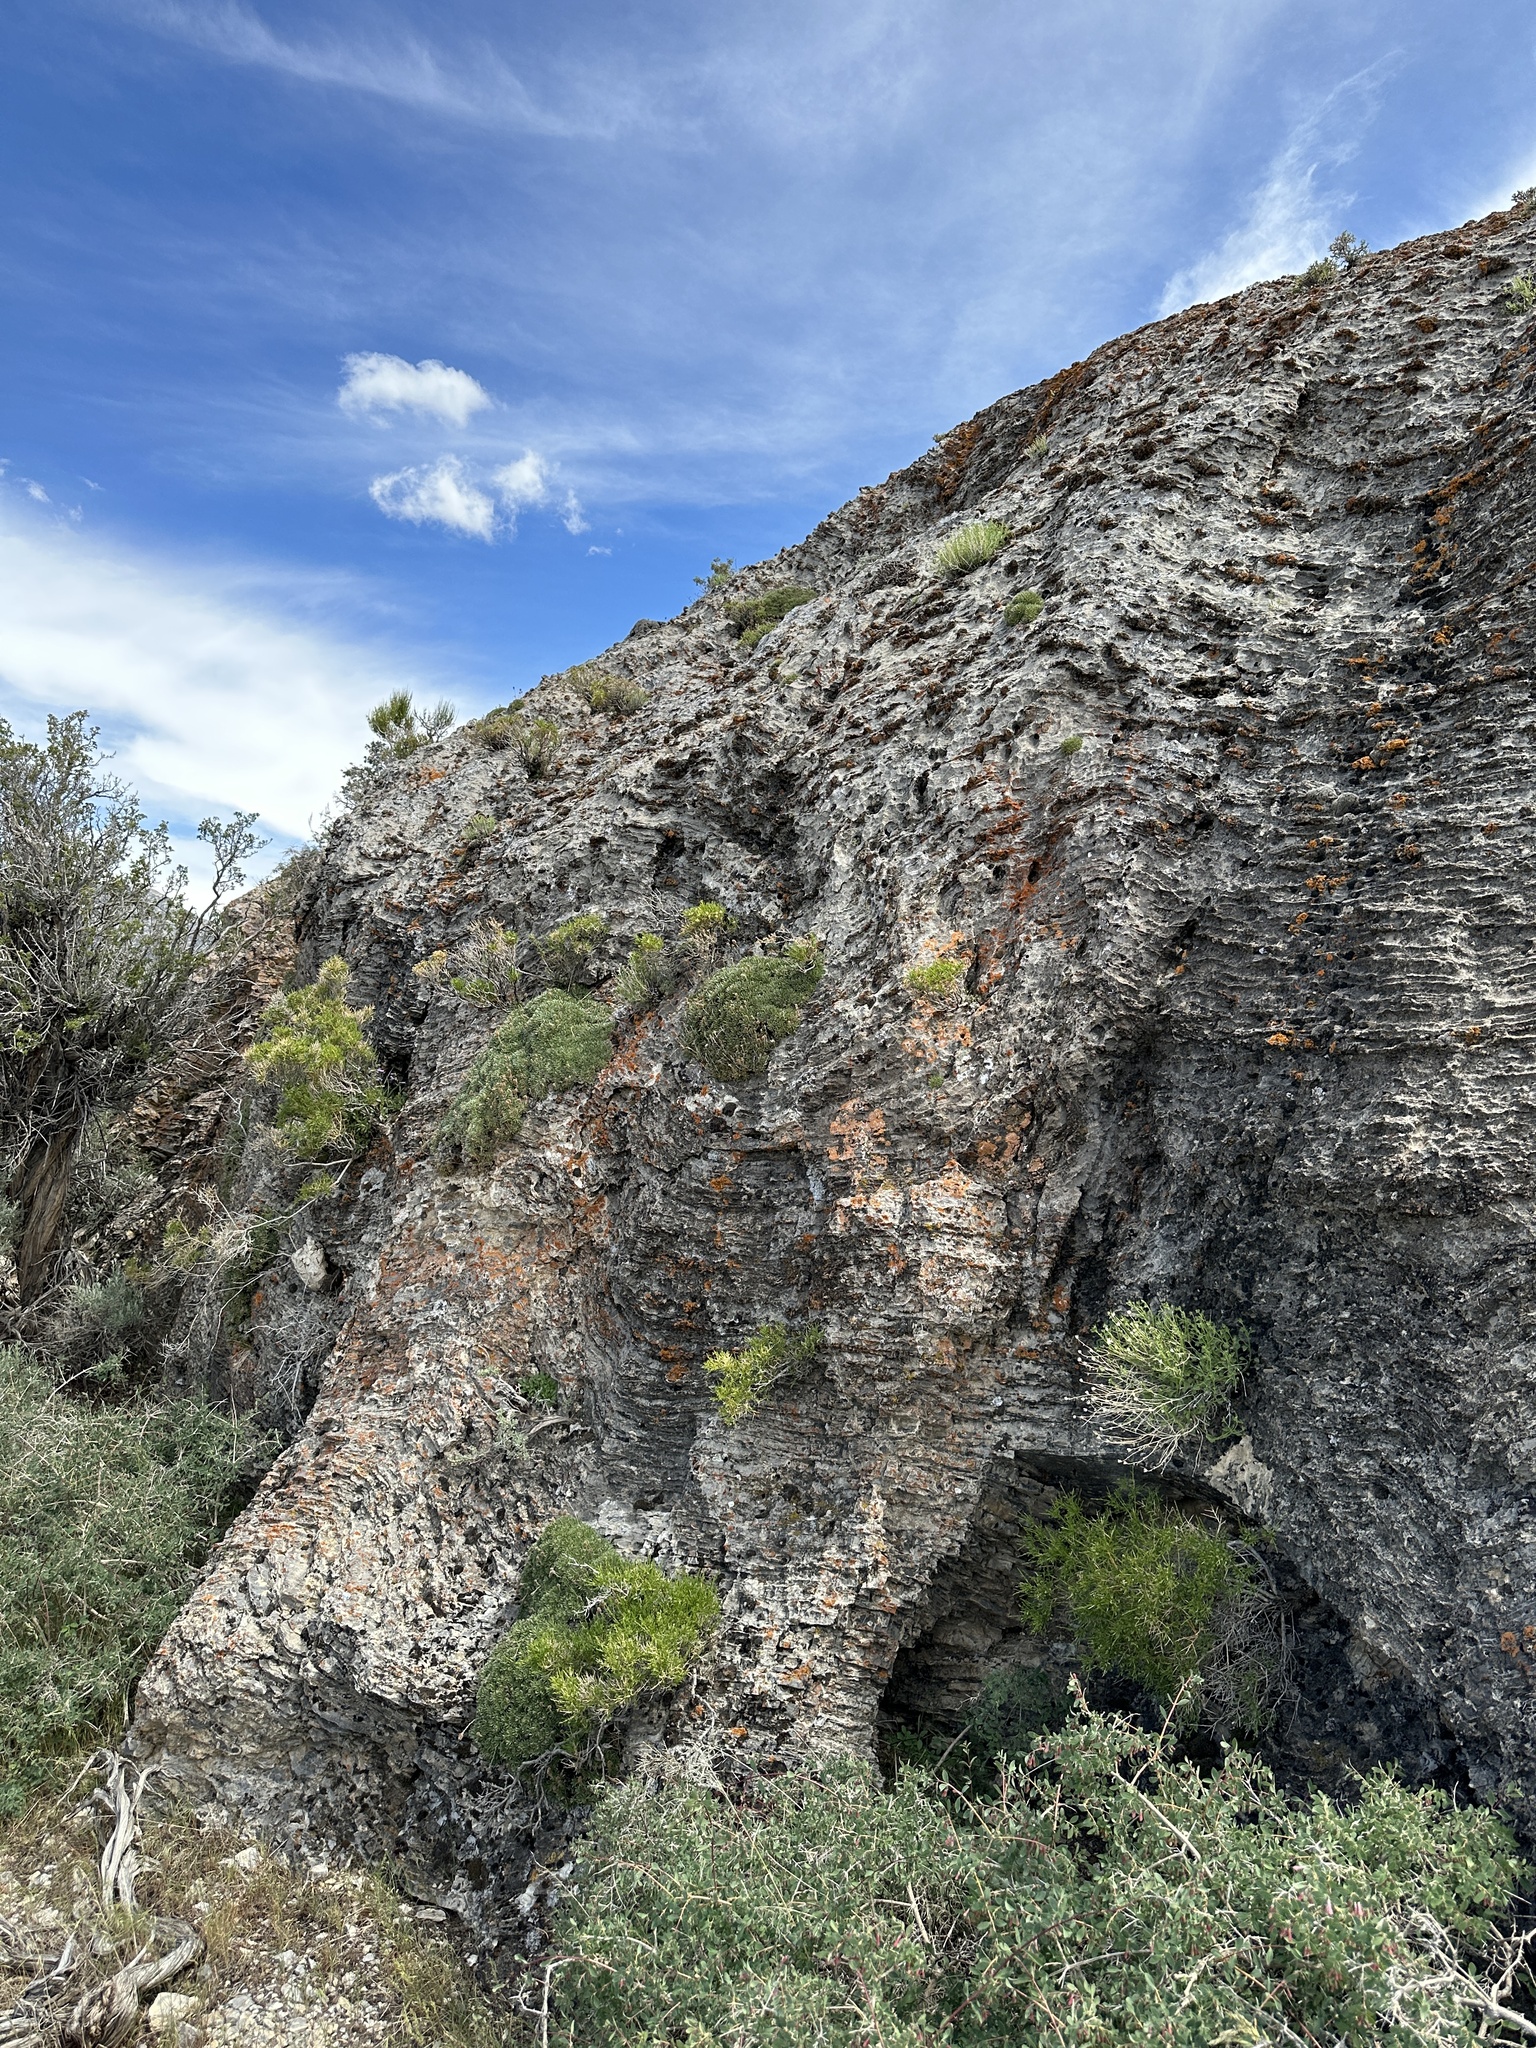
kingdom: Plantae
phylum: Tracheophyta
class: Magnoliopsida
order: Lamiales
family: Plantaginaceae
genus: Penstemon
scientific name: Penstemon humilis
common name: Low penstemon
